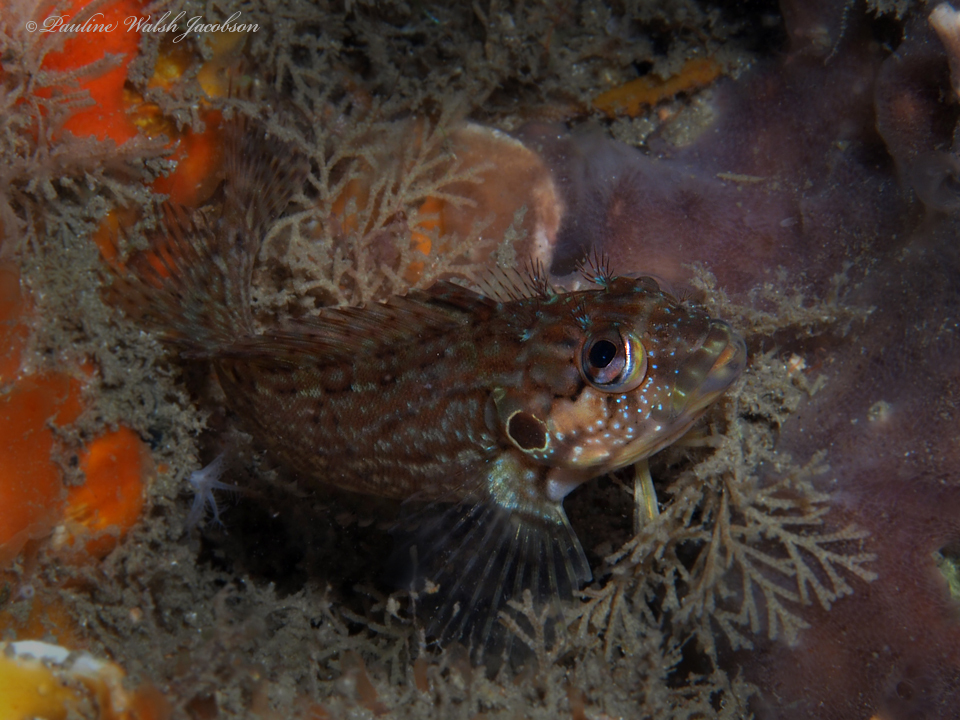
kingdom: Animalia
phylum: Chordata
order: Perciformes
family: Labrisomidae
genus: Labrisomus
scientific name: Labrisomus conditus
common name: Masquerader hairy blenny
